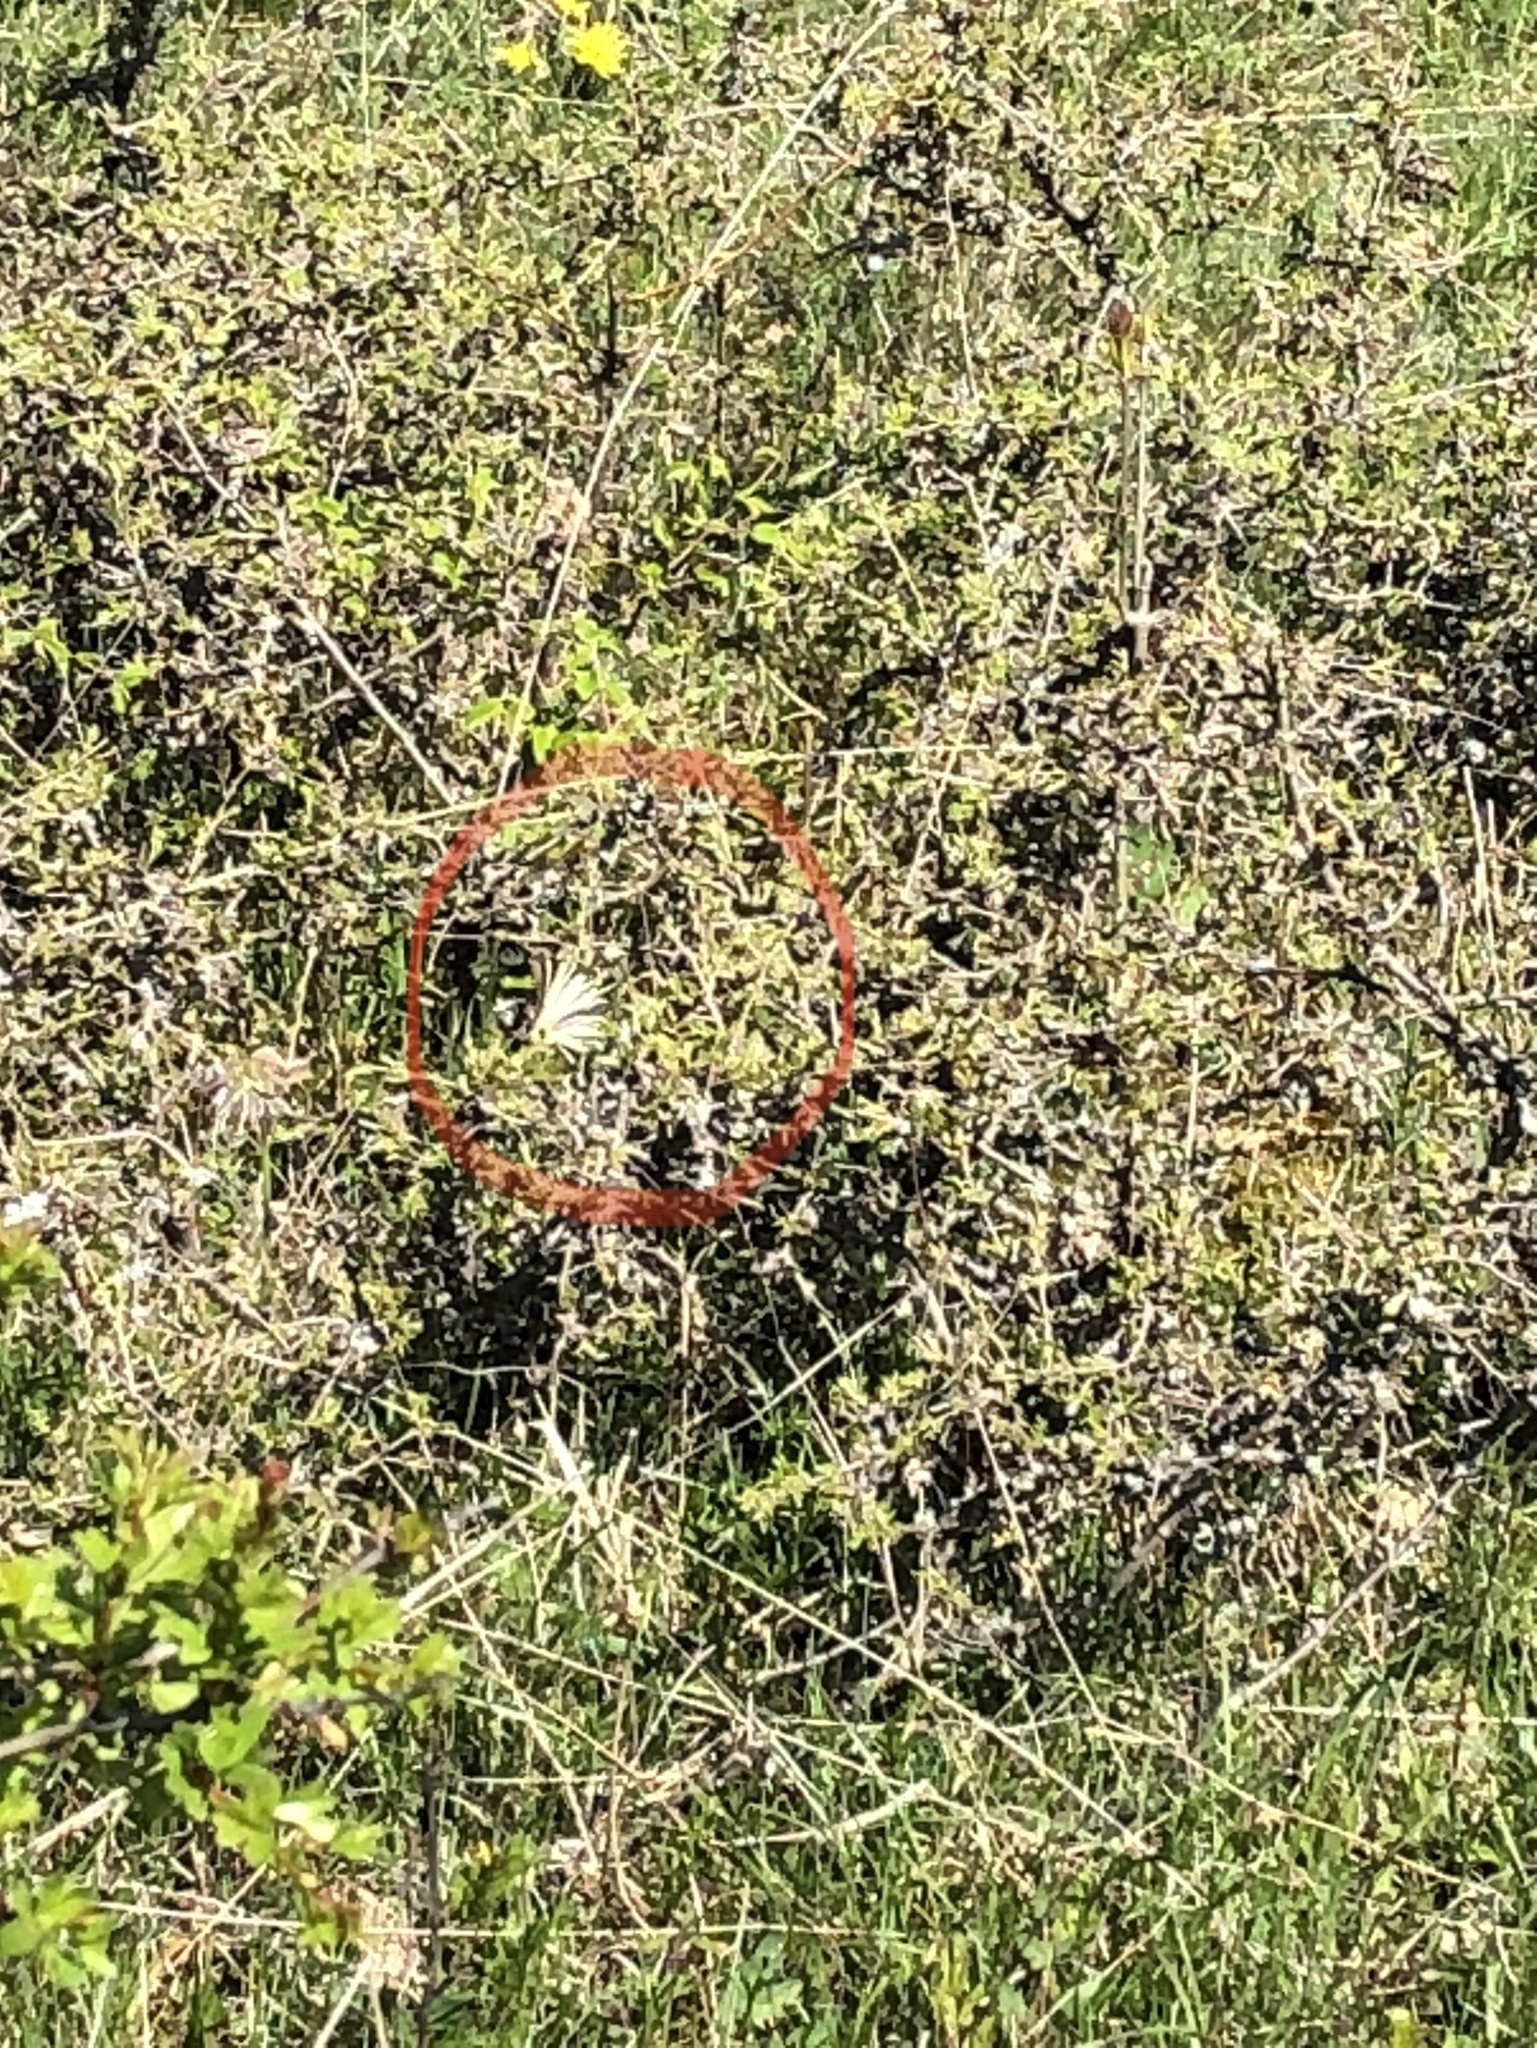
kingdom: Animalia
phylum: Arthropoda
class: Insecta
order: Lepidoptera
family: Papilionidae
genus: Iphiclides
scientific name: Iphiclides podalirius
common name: Scarce swallowtail
